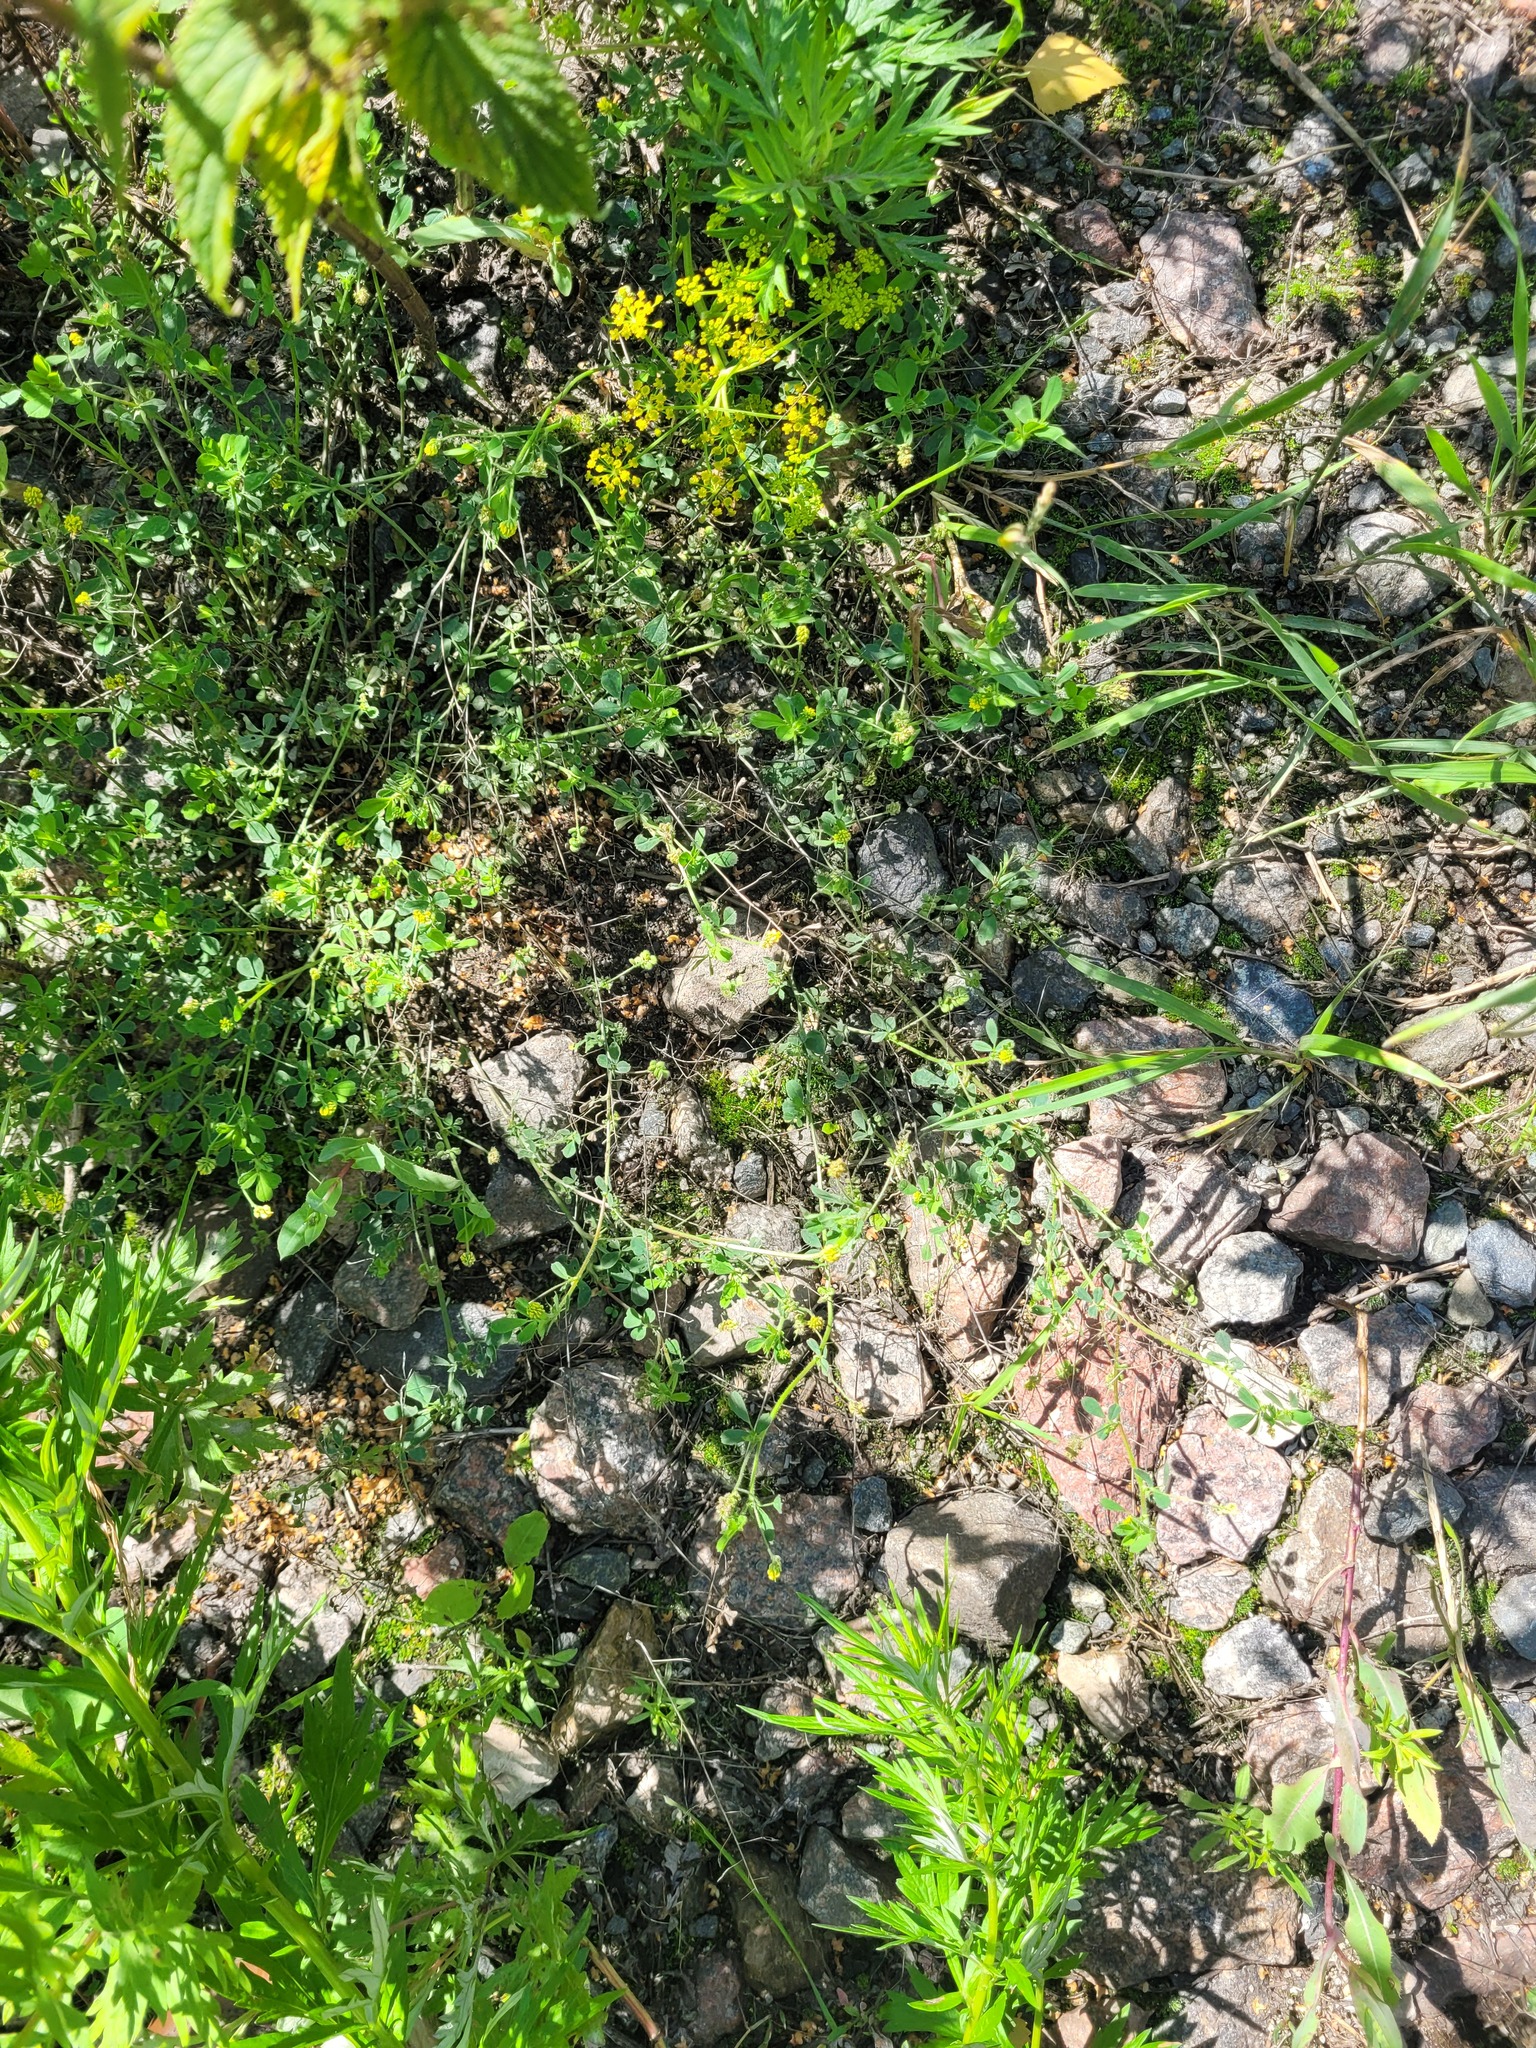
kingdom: Plantae
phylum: Tracheophyta
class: Magnoliopsida
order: Fabales
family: Fabaceae
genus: Medicago
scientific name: Medicago lupulina
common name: Black medick
